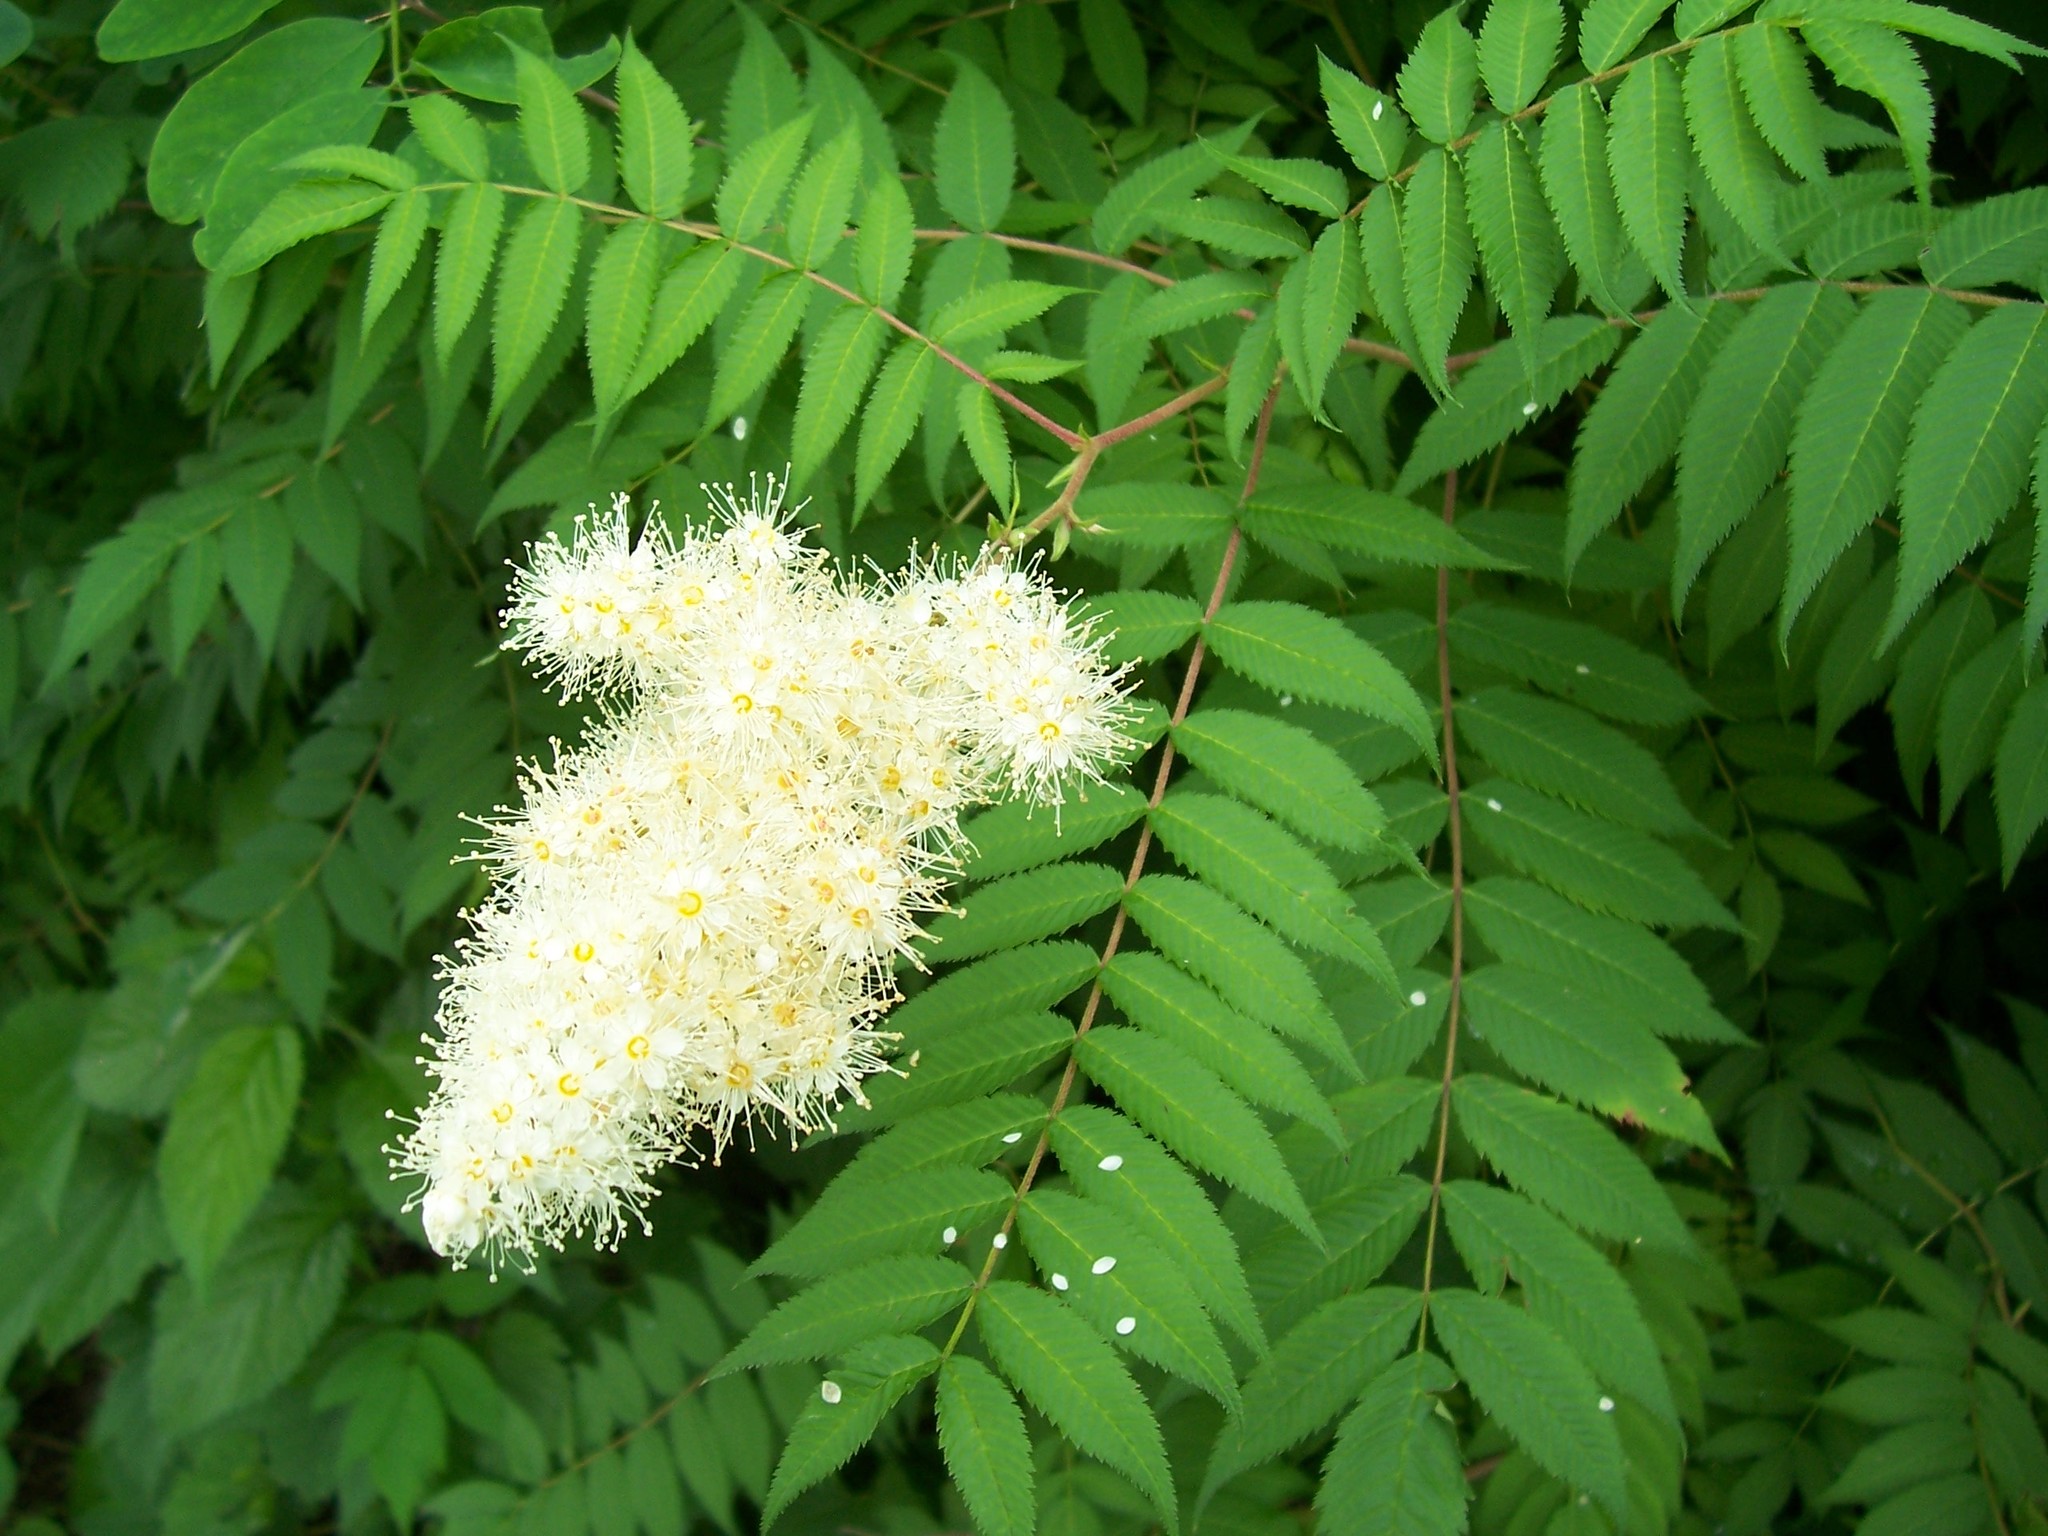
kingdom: Plantae
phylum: Tracheophyta
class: Magnoliopsida
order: Rosales
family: Rosaceae
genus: Sorbaria
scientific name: Sorbaria sorbifolia
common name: False spiraea
